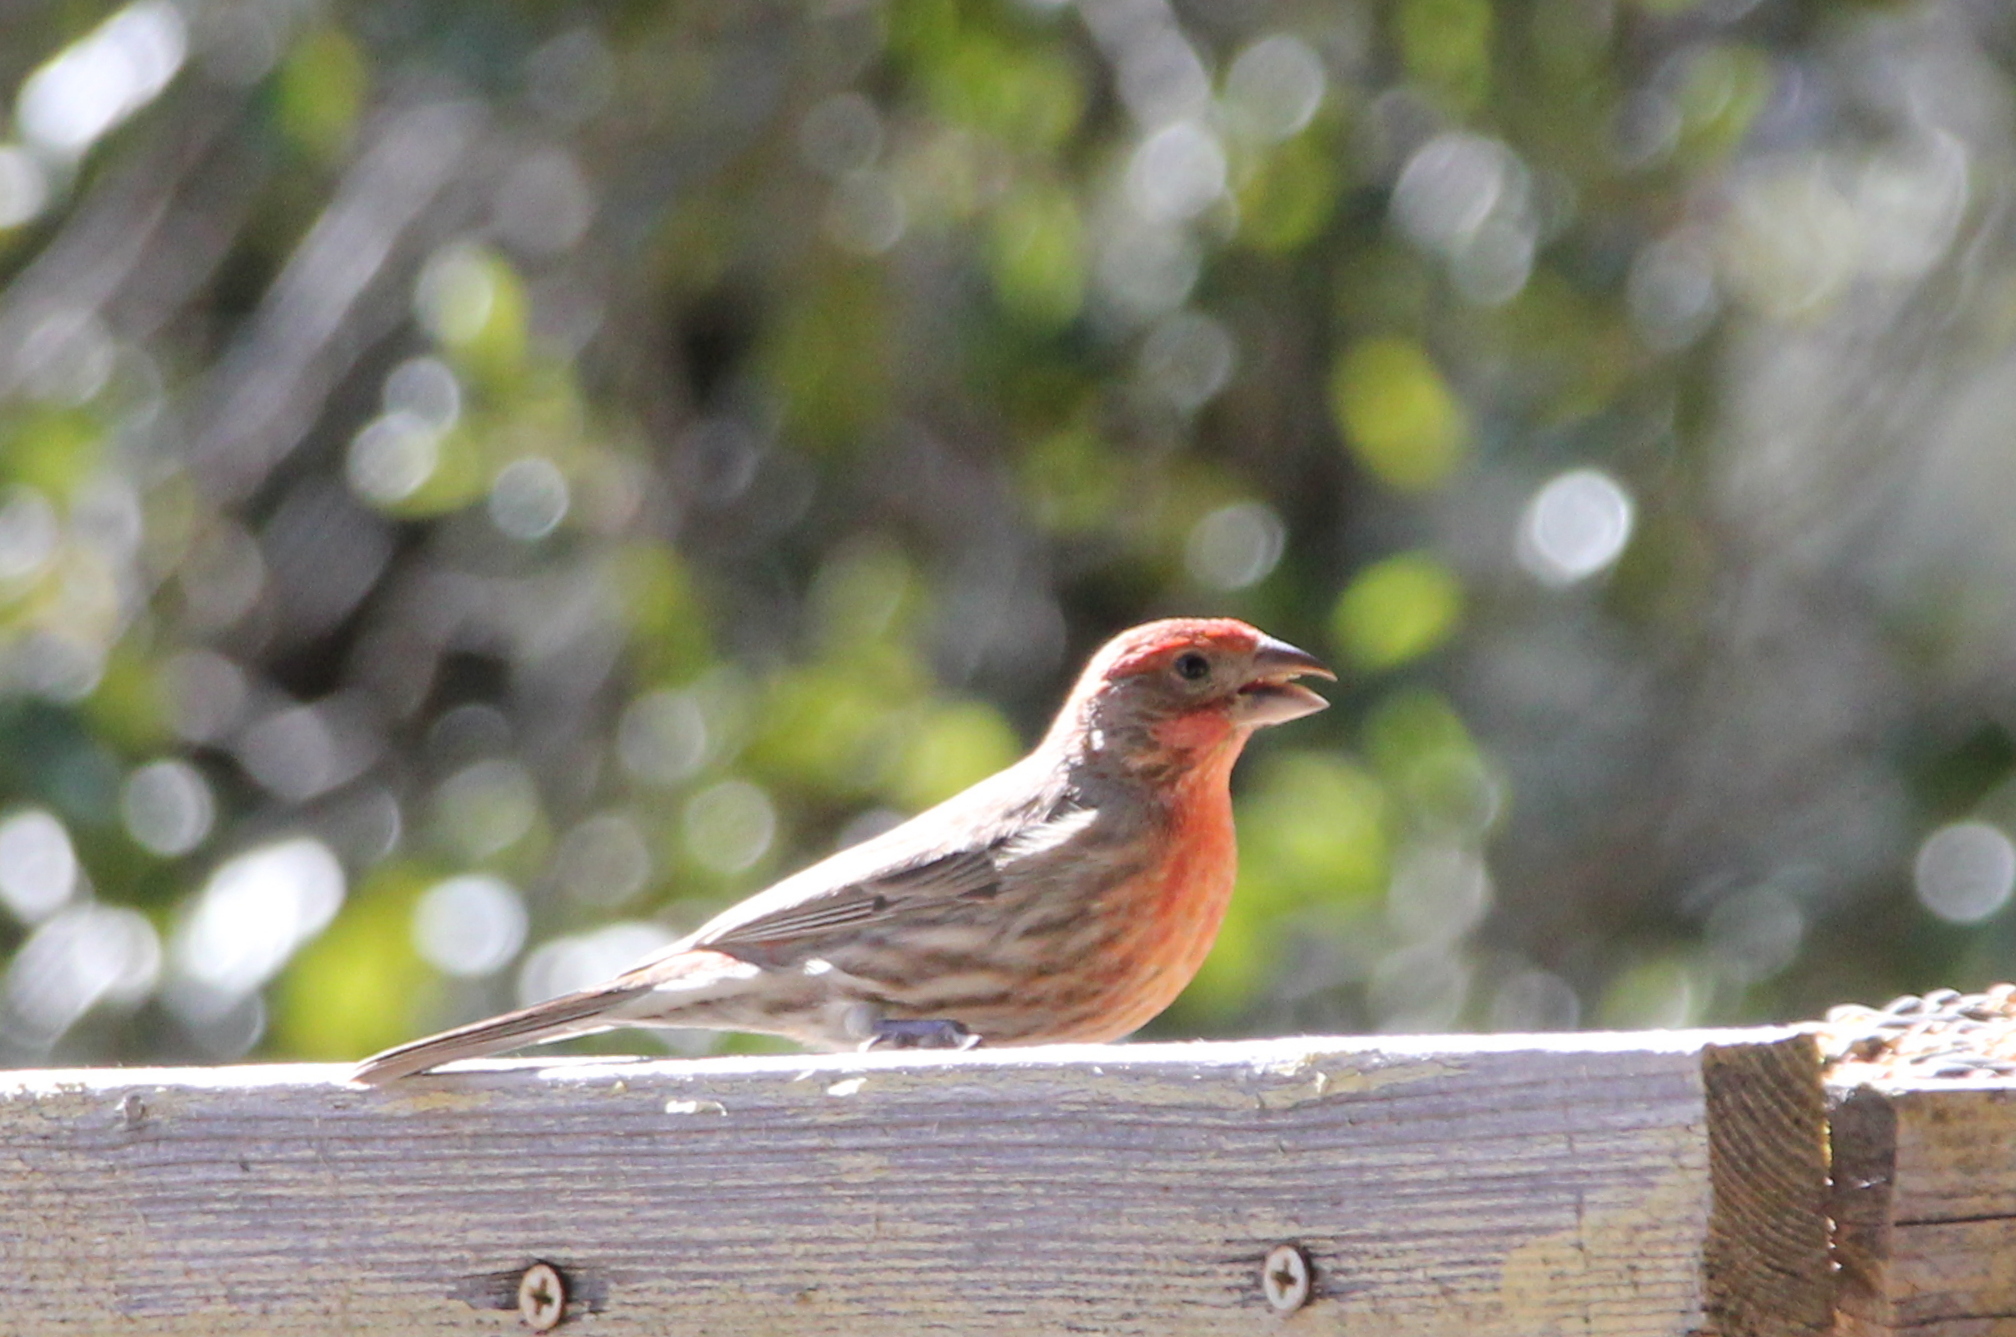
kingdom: Animalia
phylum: Chordata
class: Aves
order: Passeriformes
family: Fringillidae
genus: Haemorhous
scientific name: Haemorhous mexicanus
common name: House finch
